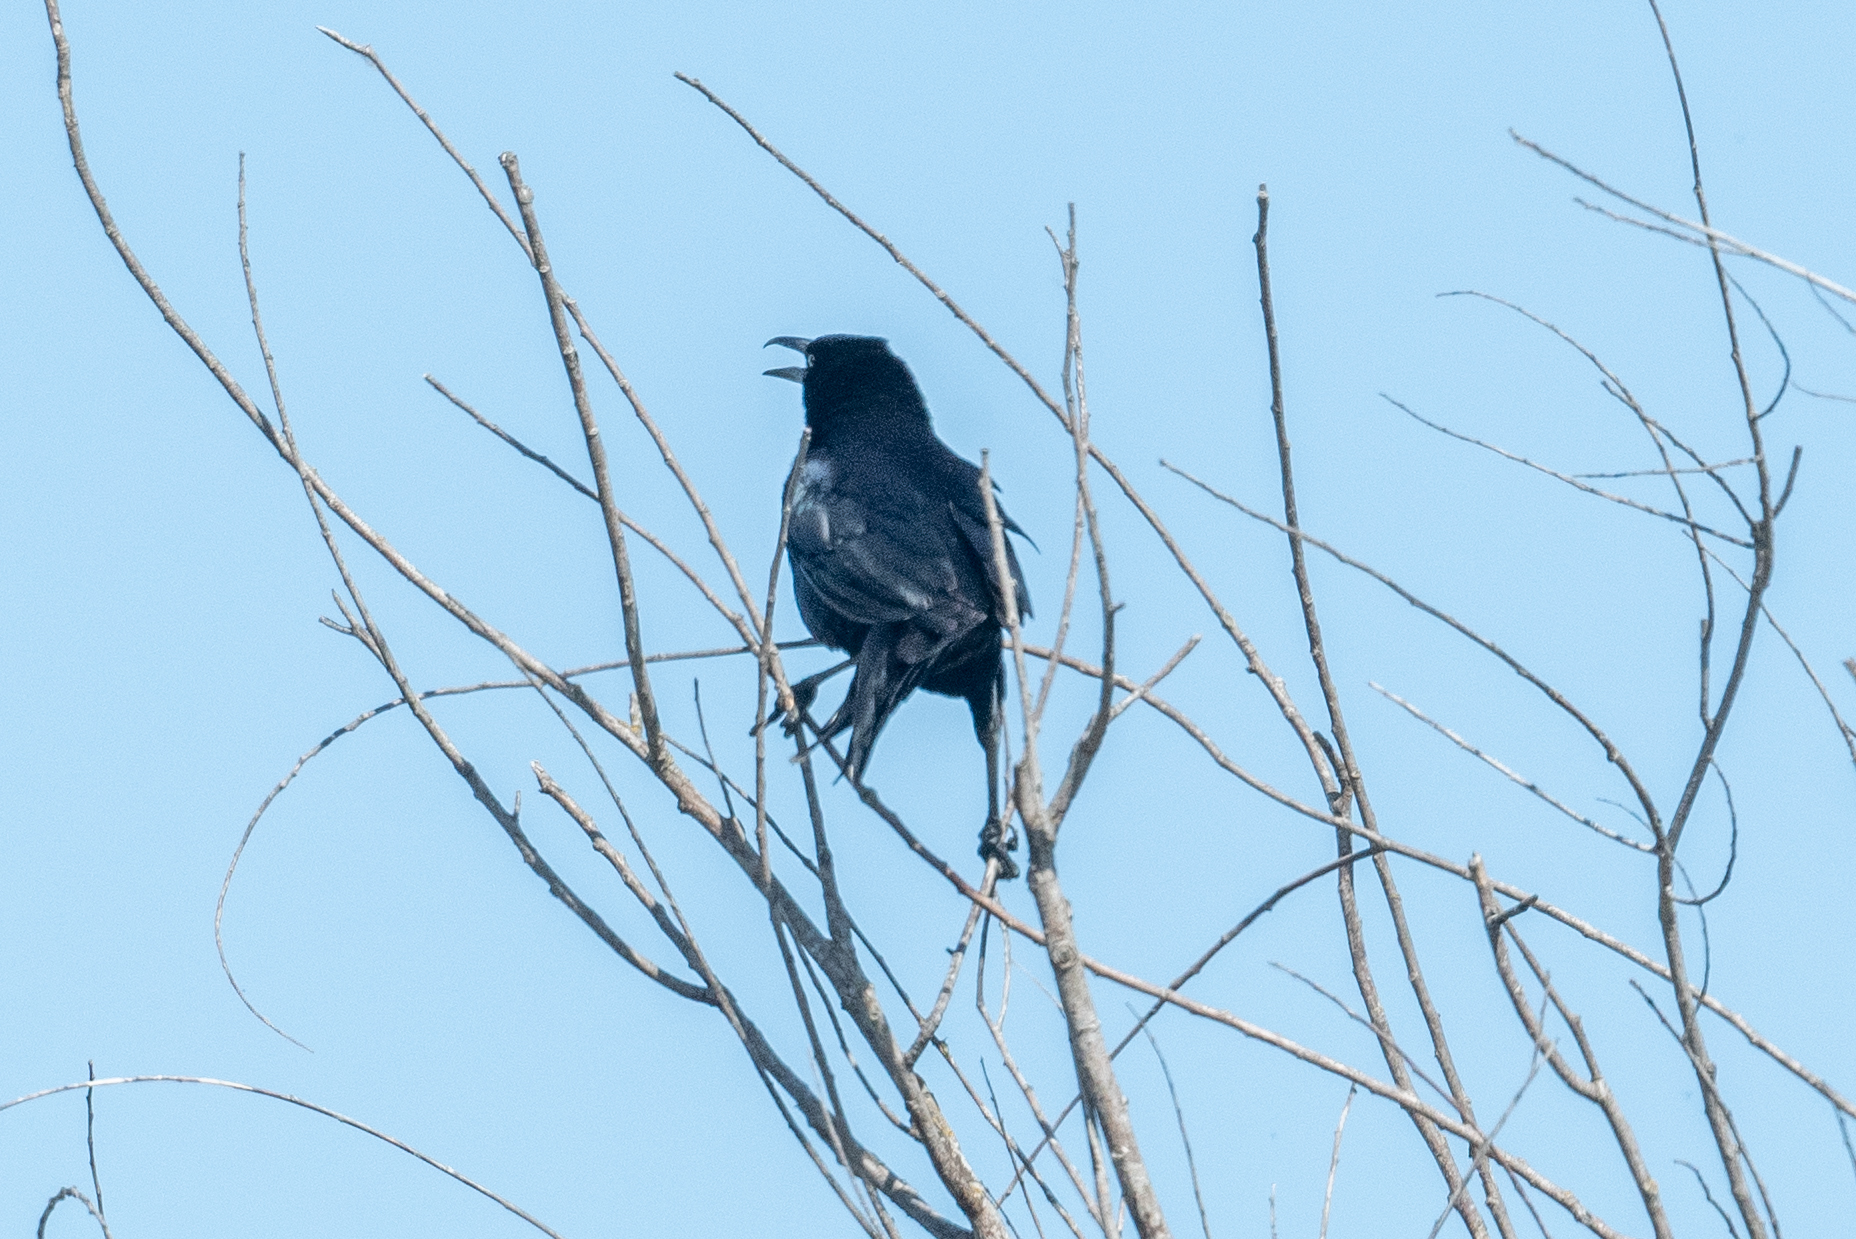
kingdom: Animalia
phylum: Chordata
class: Aves
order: Passeriformes
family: Icteridae
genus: Quiscalus
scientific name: Quiscalus mexicanus
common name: Great-tailed grackle
